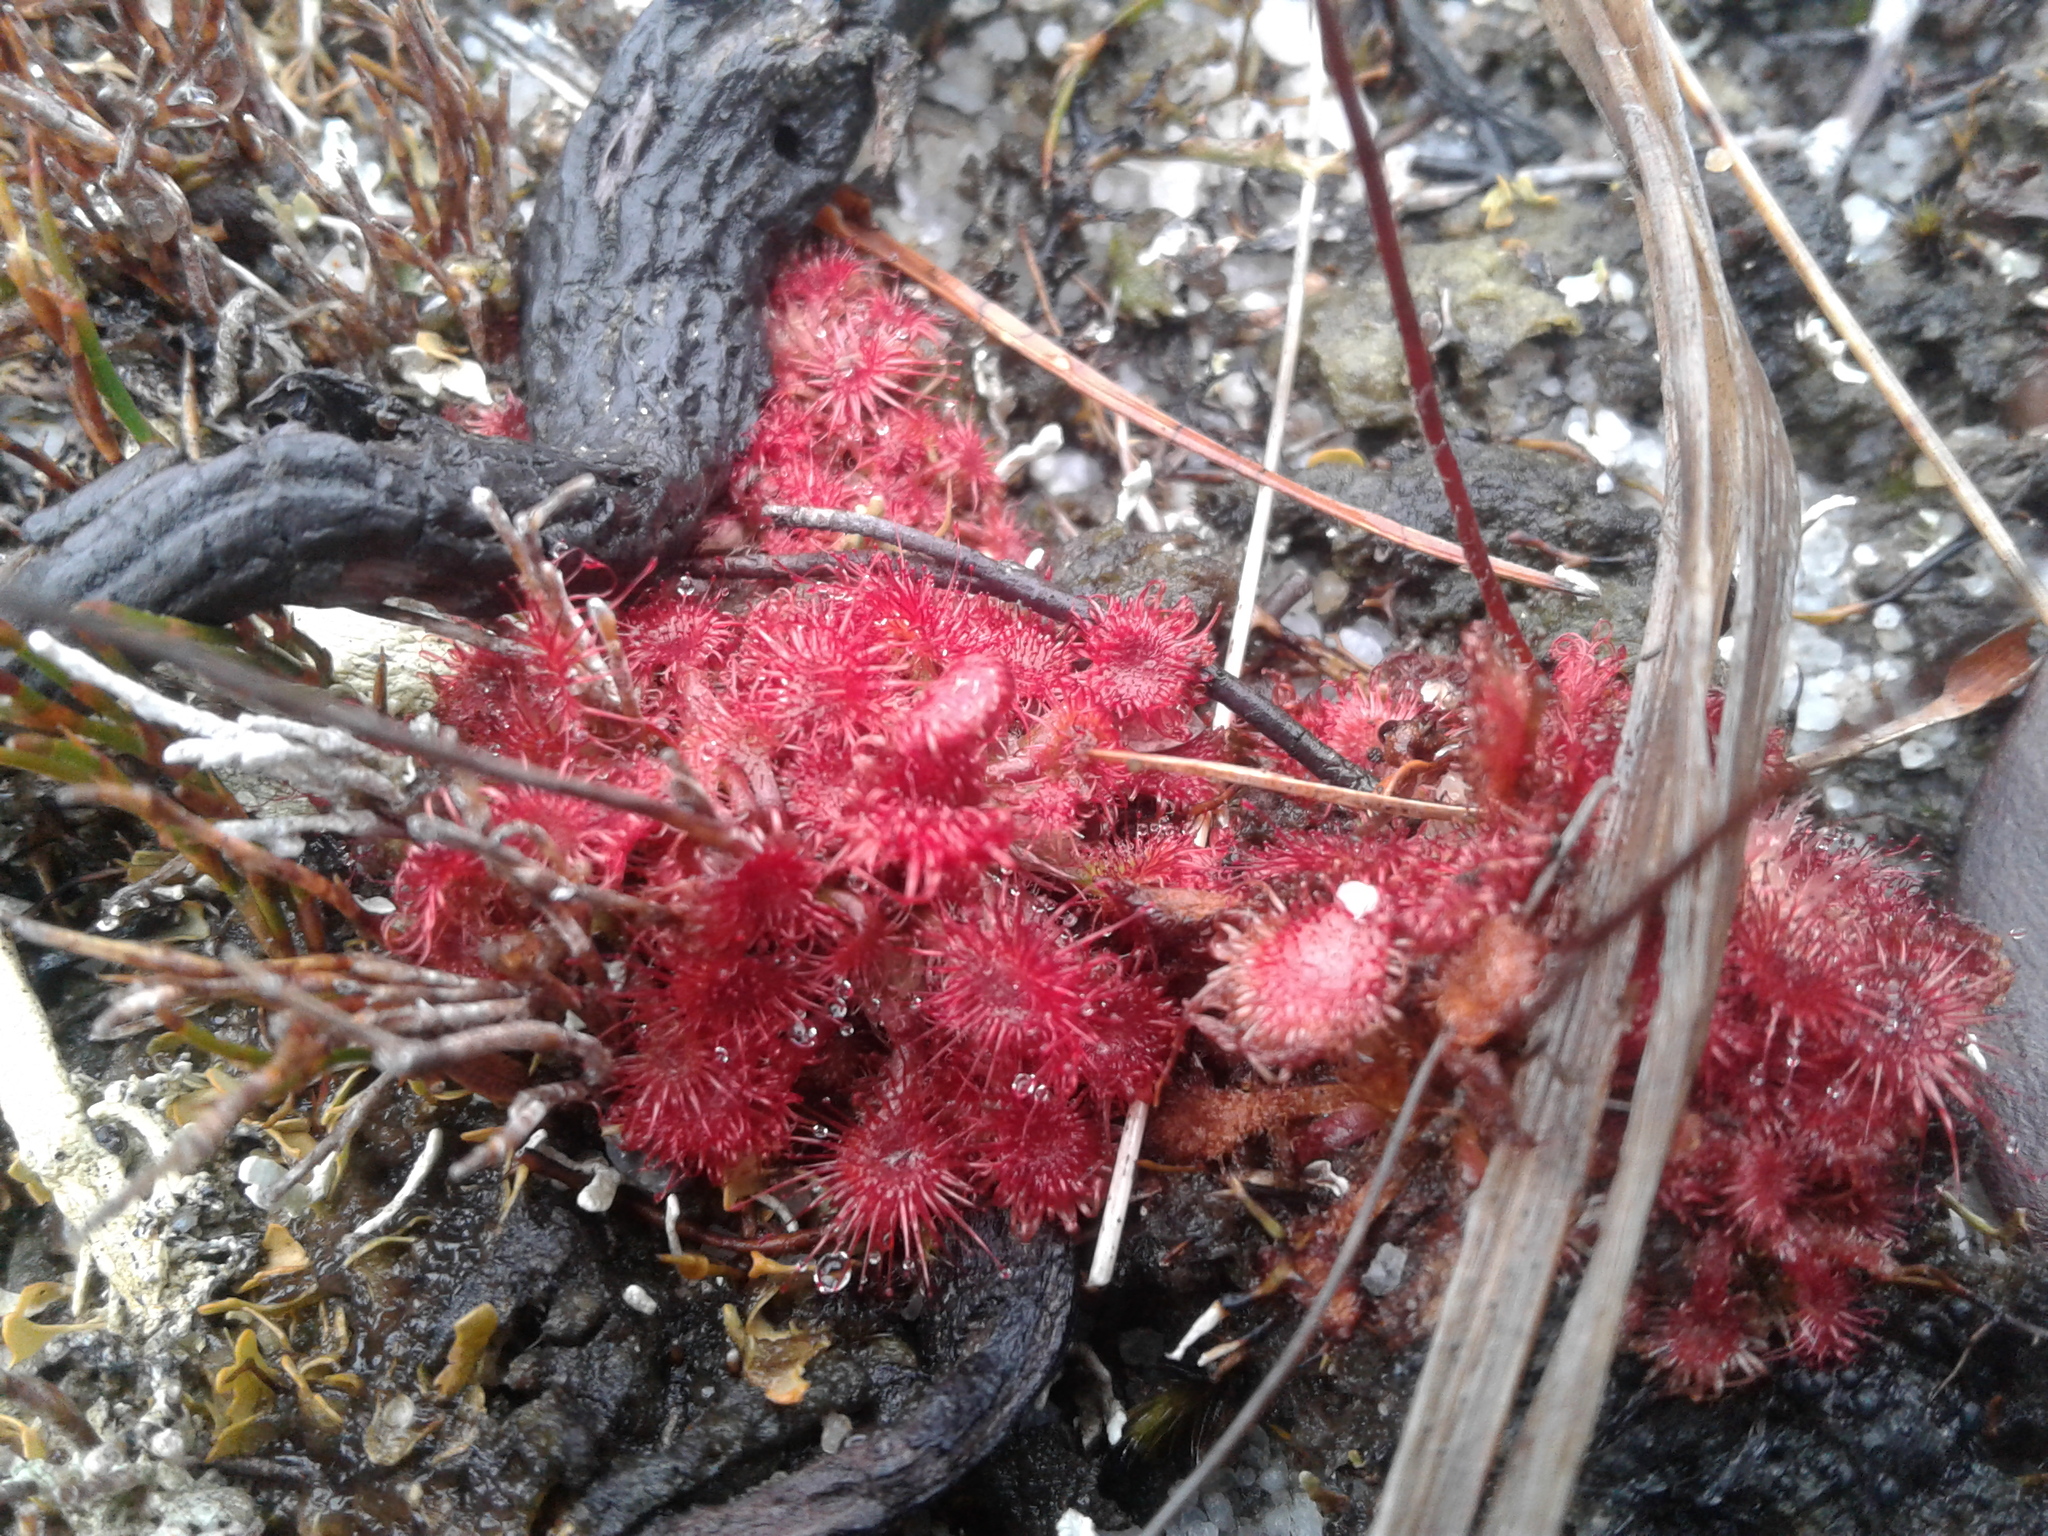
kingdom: Plantae
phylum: Tracheophyta
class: Magnoliopsida
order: Caryophyllales
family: Droseraceae
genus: Drosera
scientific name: Drosera spatulata
